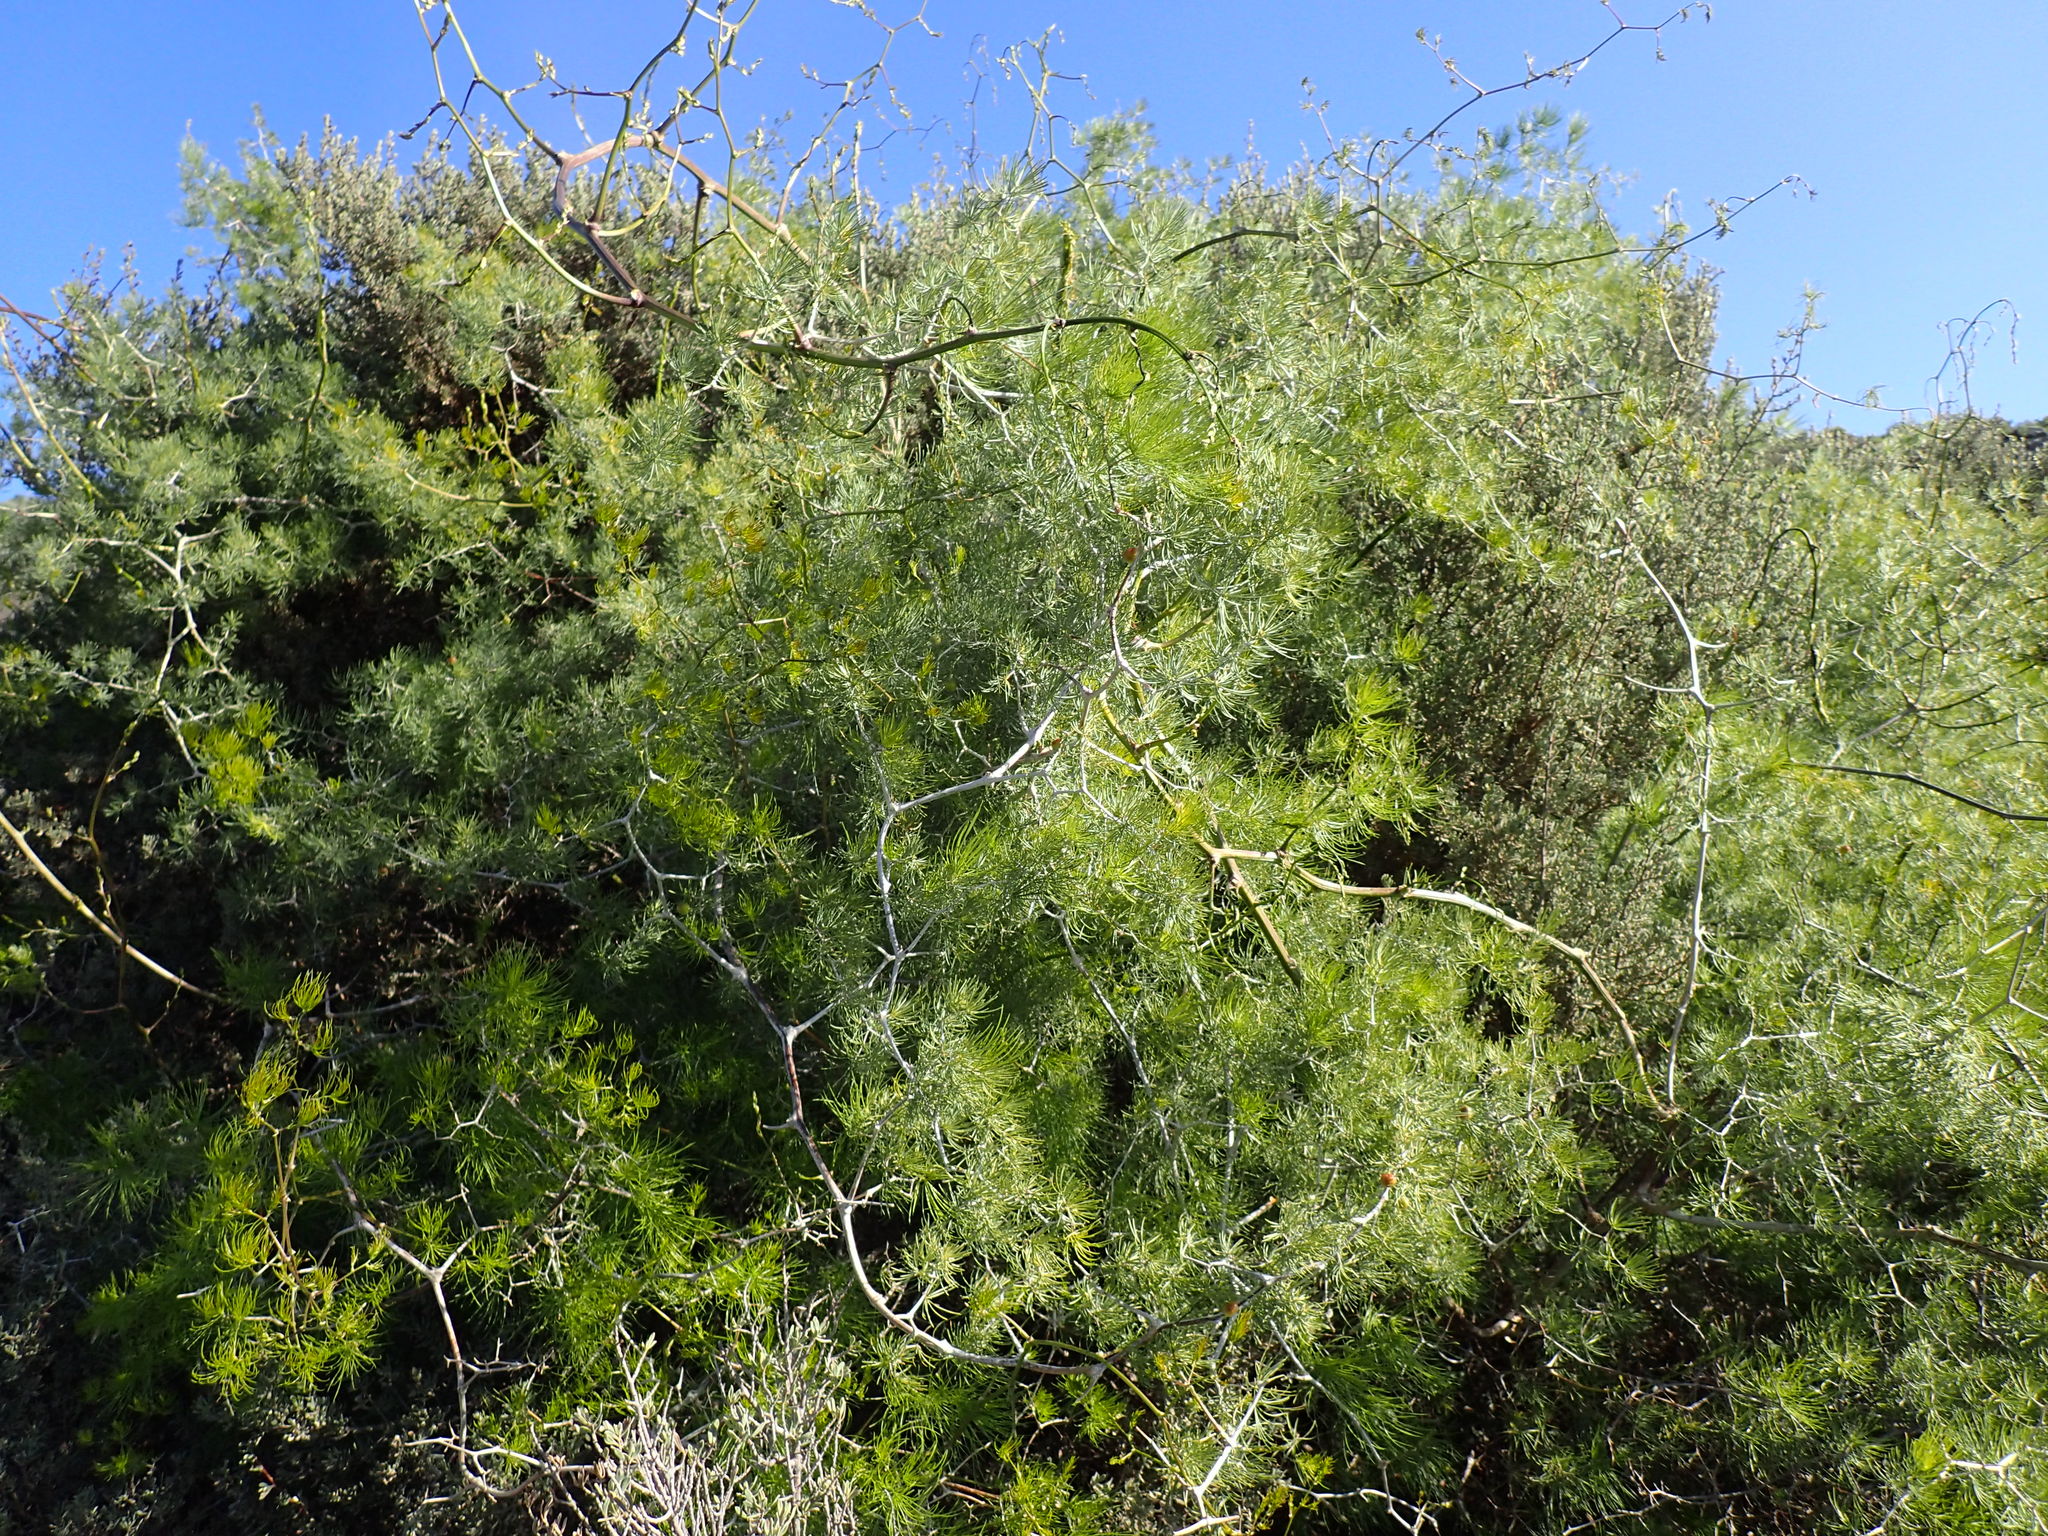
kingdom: Plantae
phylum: Tracheophyta
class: Liliopsida
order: Asparagales
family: Asparagaceae
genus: Asparagus
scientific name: Asparagus retrofractus
